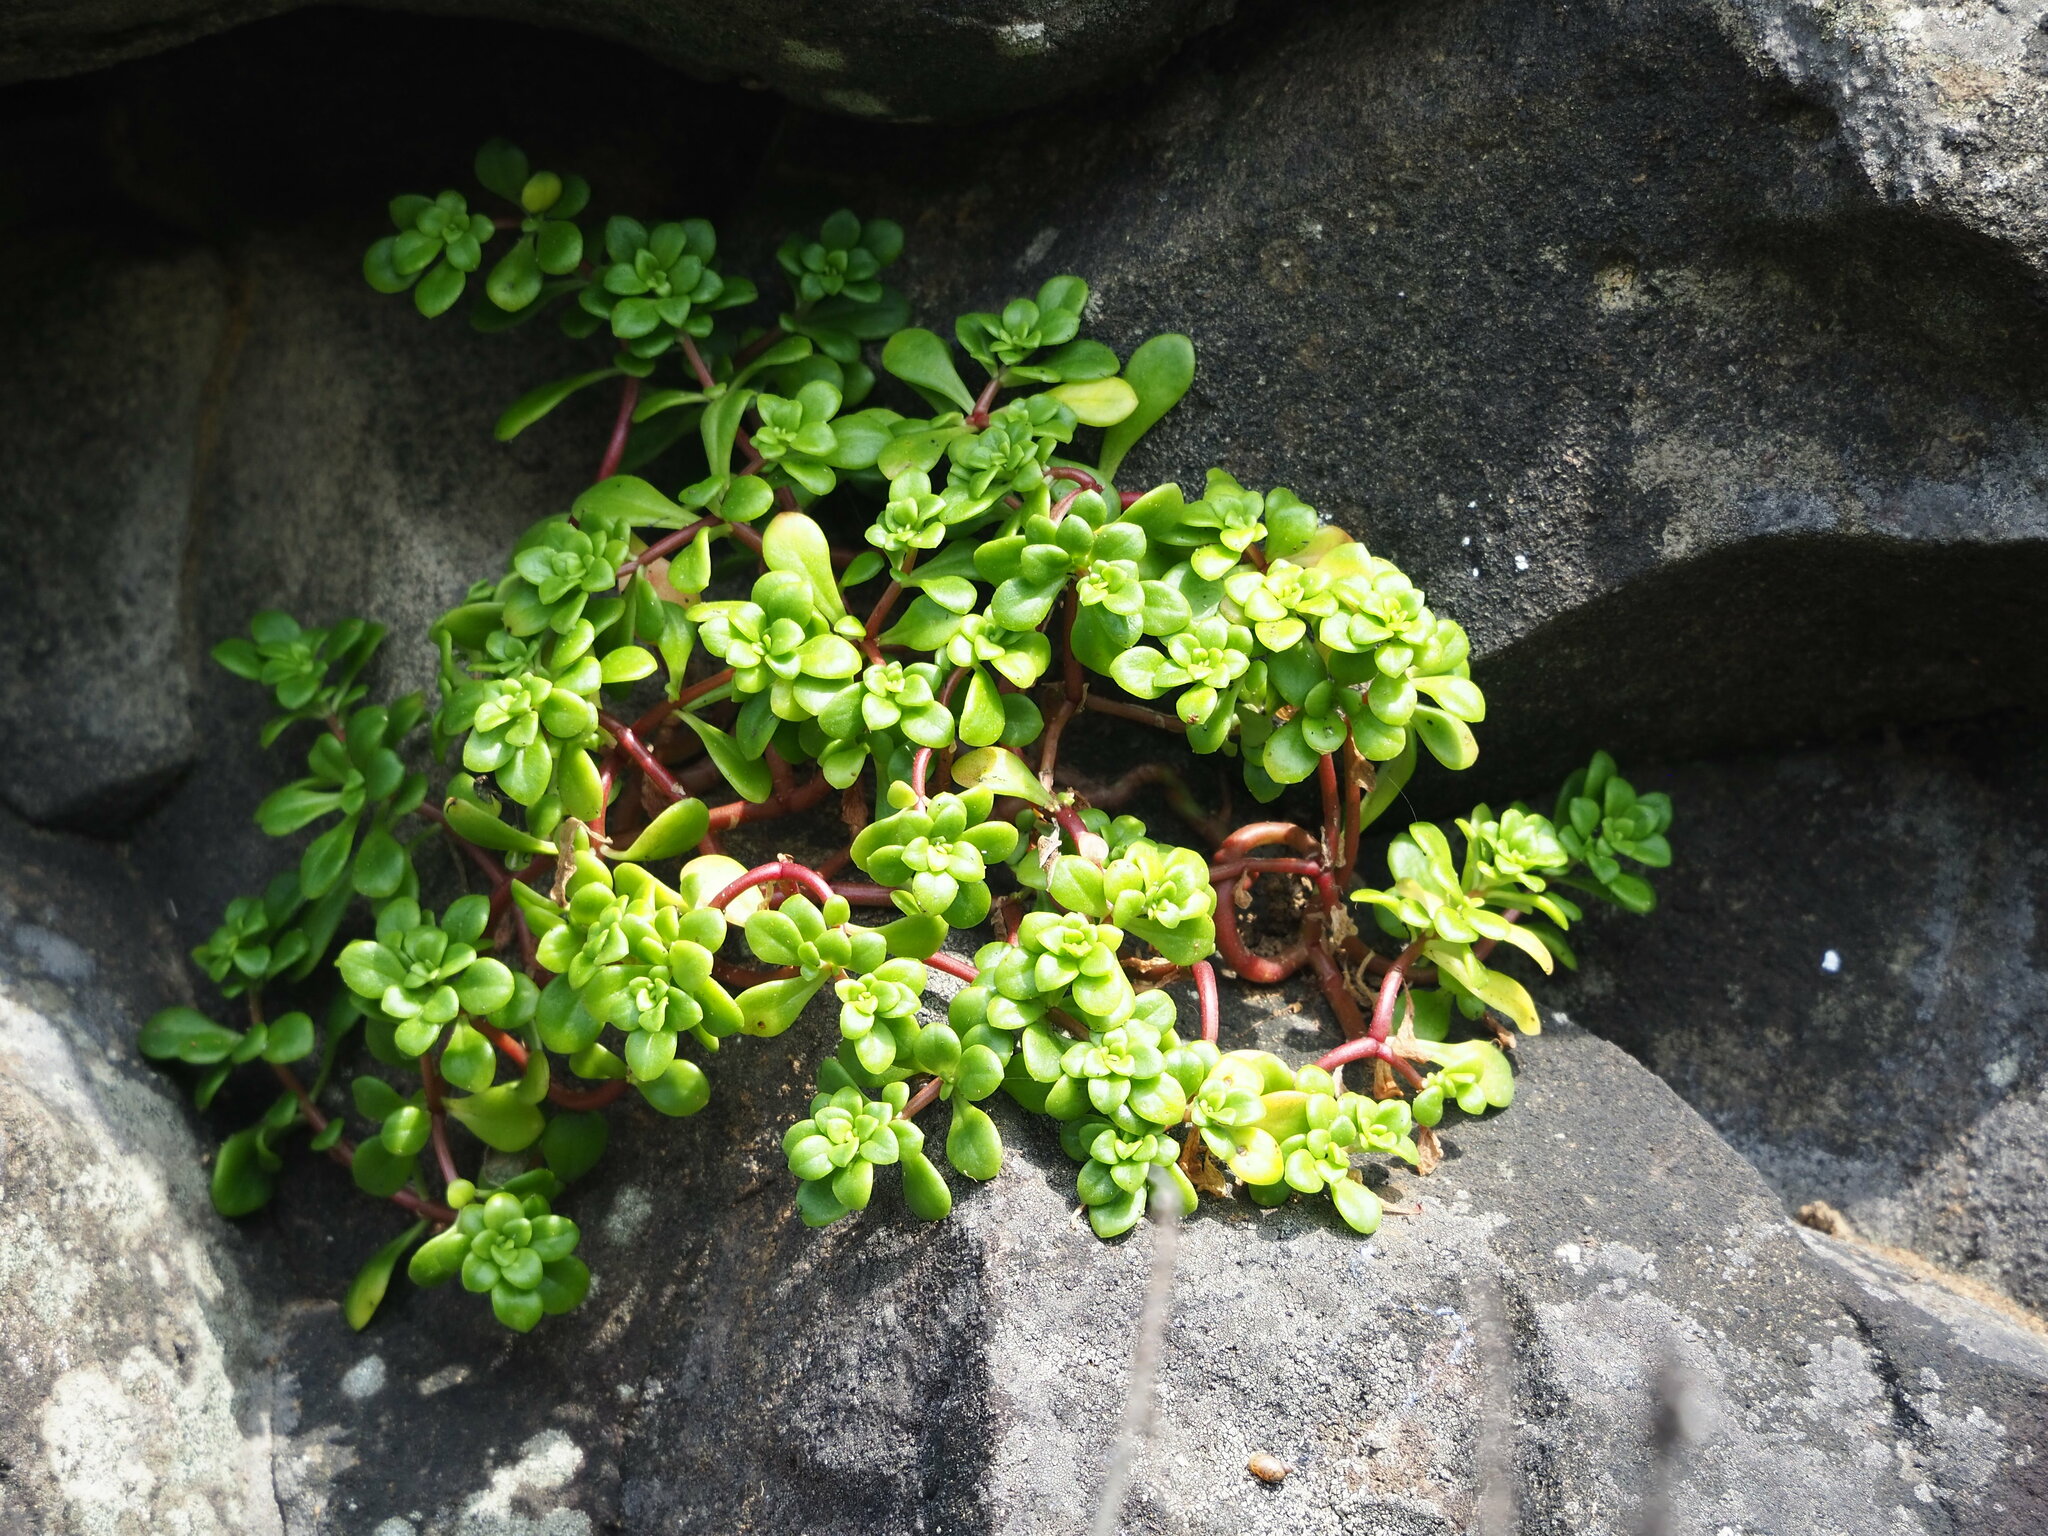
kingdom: Plantae
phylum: Tracheophyta
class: Magnoliopsida
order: Saxifragales
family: Crassulaceae
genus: Sedum
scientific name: Sedum formosanum
